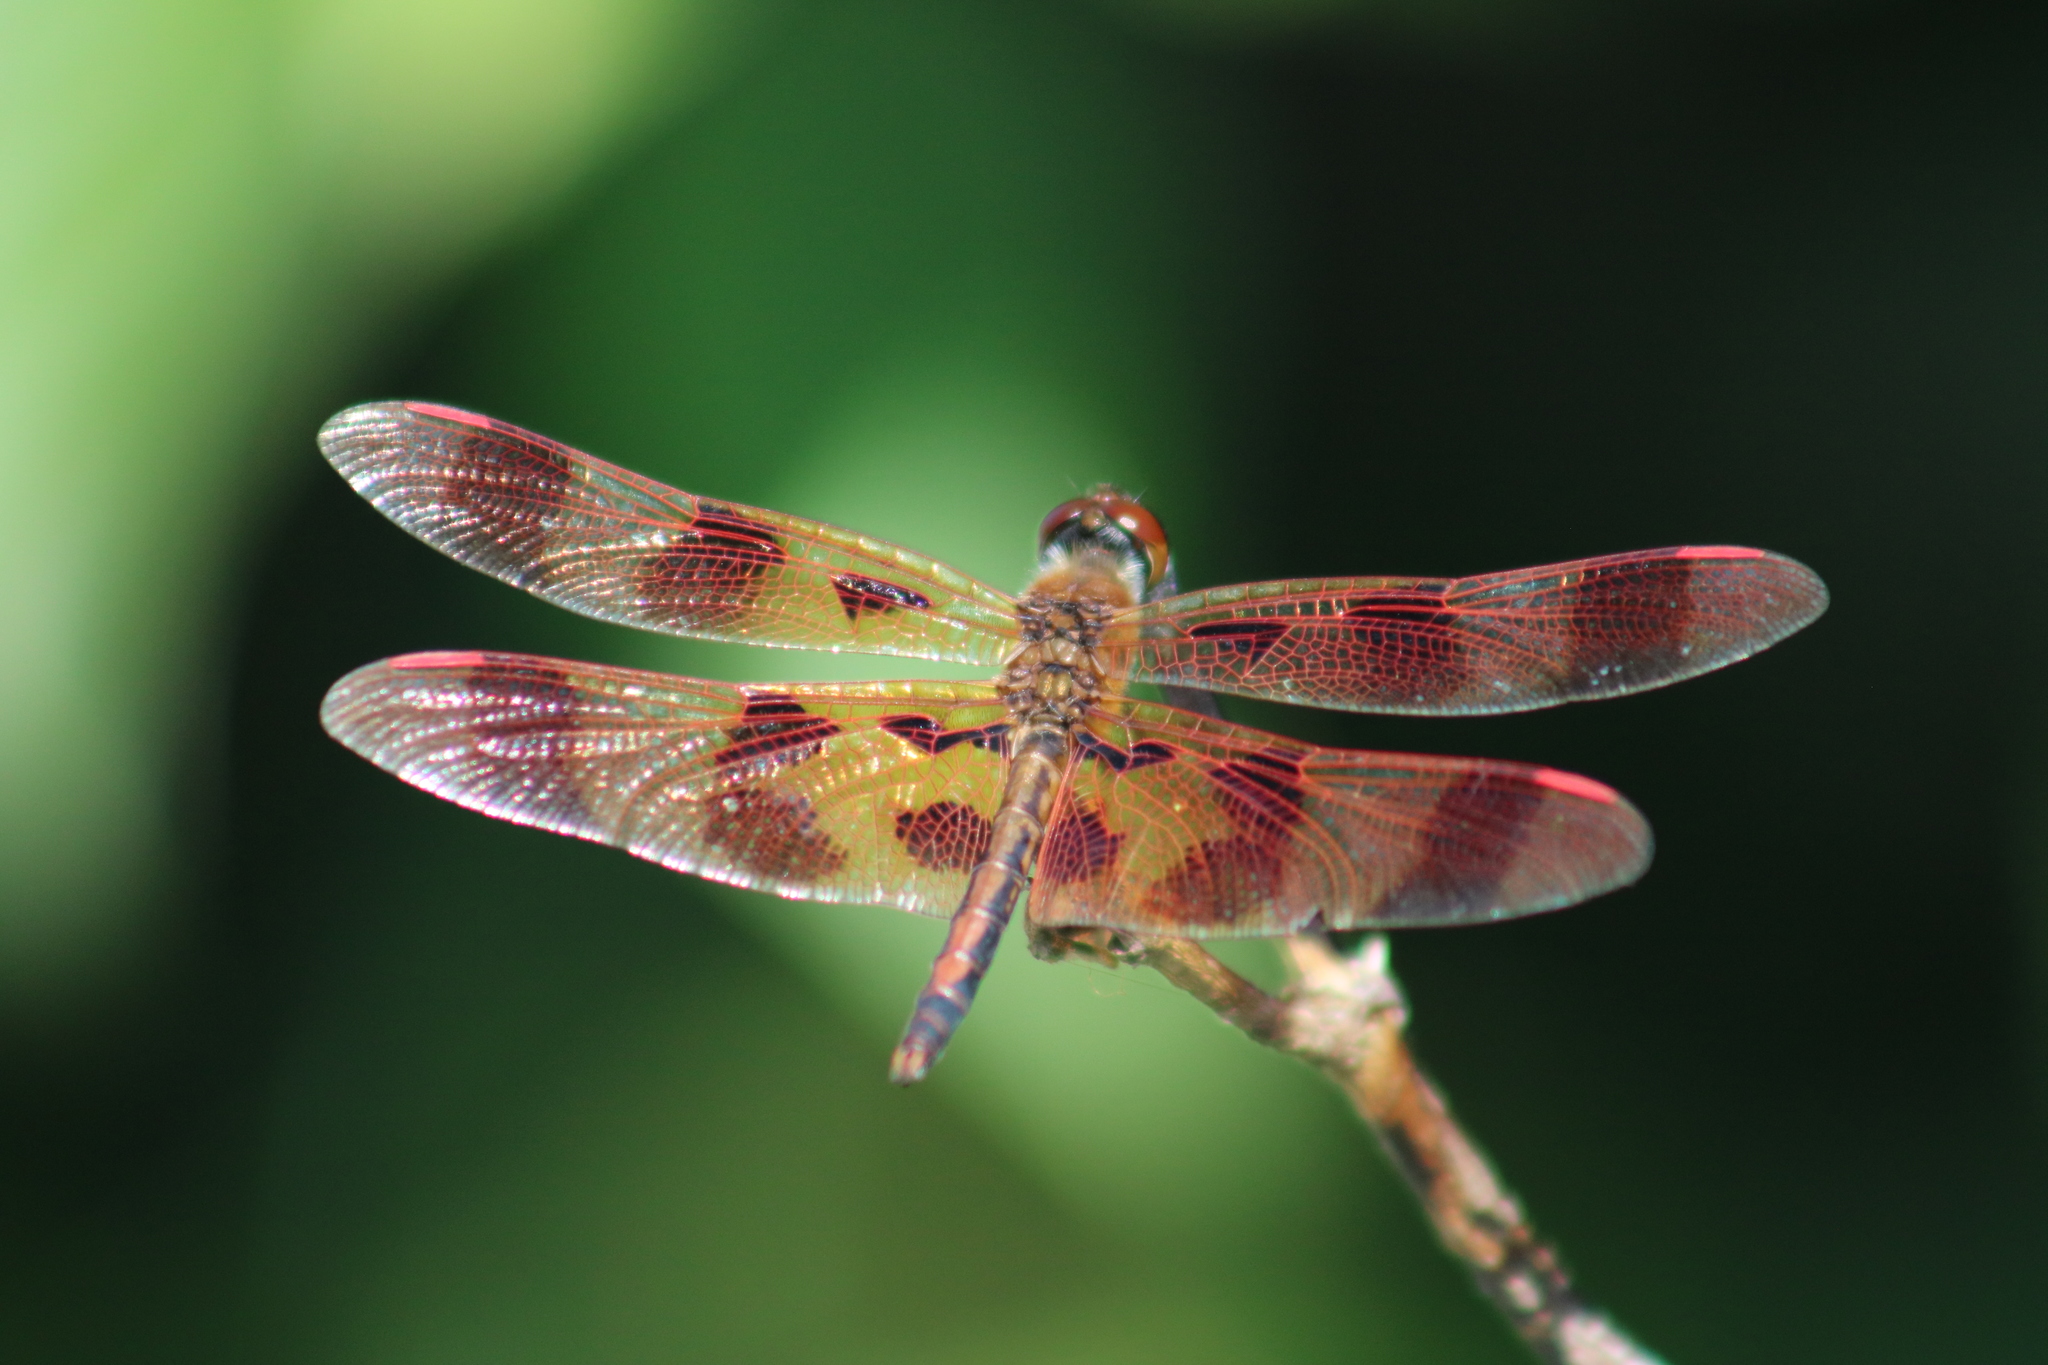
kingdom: Animalia
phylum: Arthropoda
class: Insecta
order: Odonata
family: Libellulidae
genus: Celithemis
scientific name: Celithemis eponina
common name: Halloween pennant
